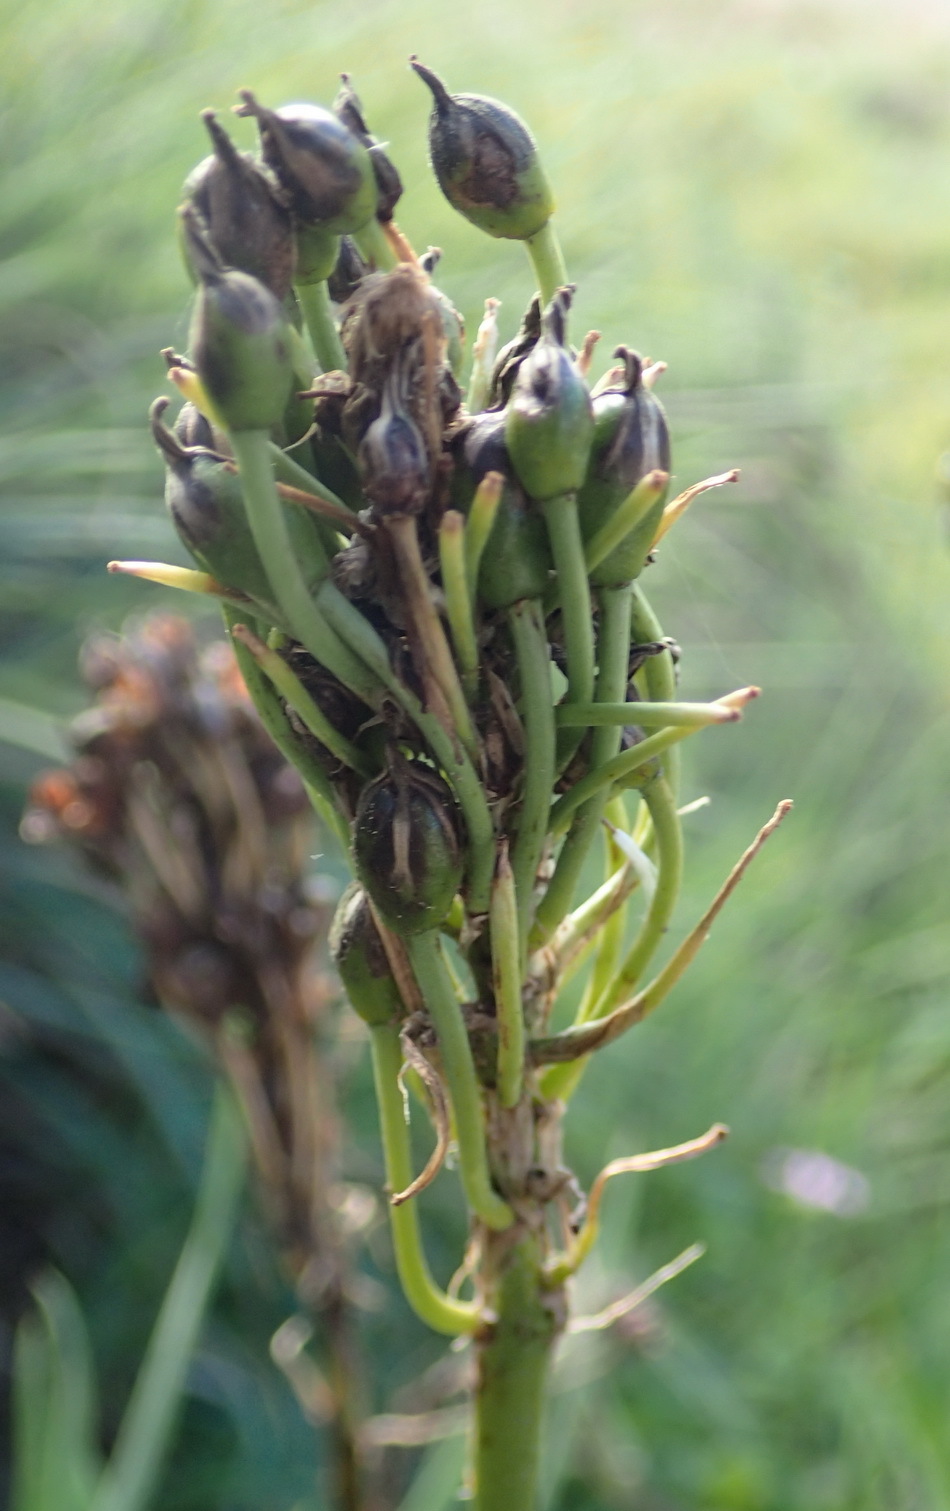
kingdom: Plantae
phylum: Tracheophyta
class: Liliopsida
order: Asparagales
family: Asphodelaceae
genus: Bulbine
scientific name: Bulbine abyssinica
